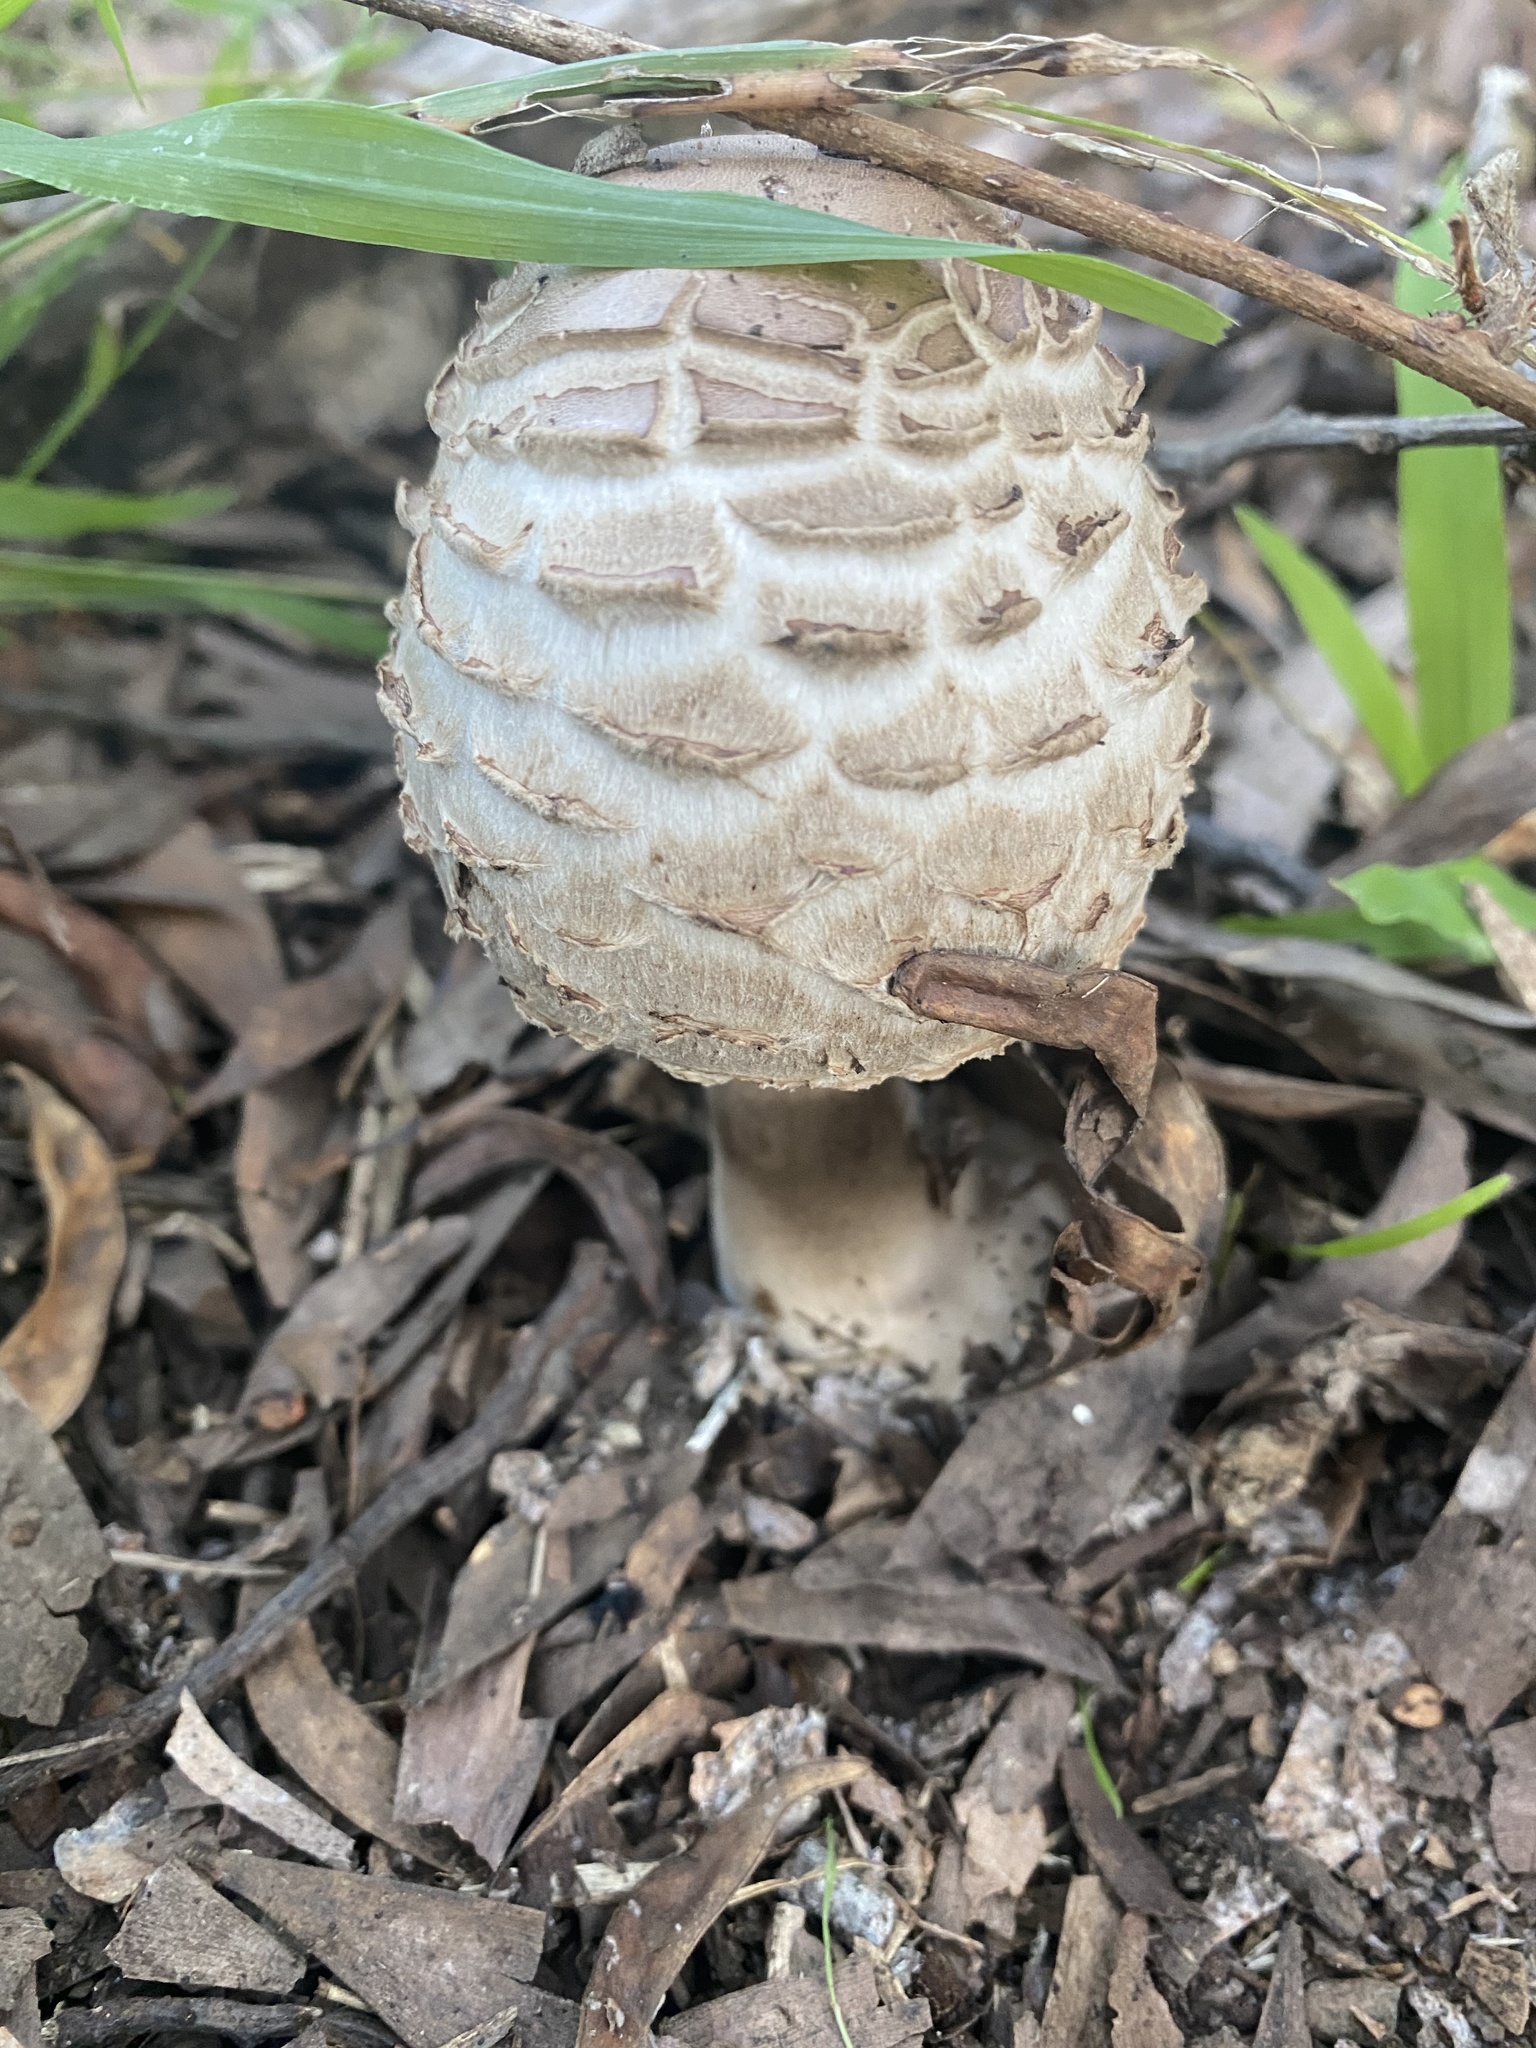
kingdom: Fungi
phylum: Basidiomycota
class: Agaricomycetes
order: Agaricales
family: Agaricaceae
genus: Chlorophyllum
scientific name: Chlorophyllum brunneum
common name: Brown parasol
